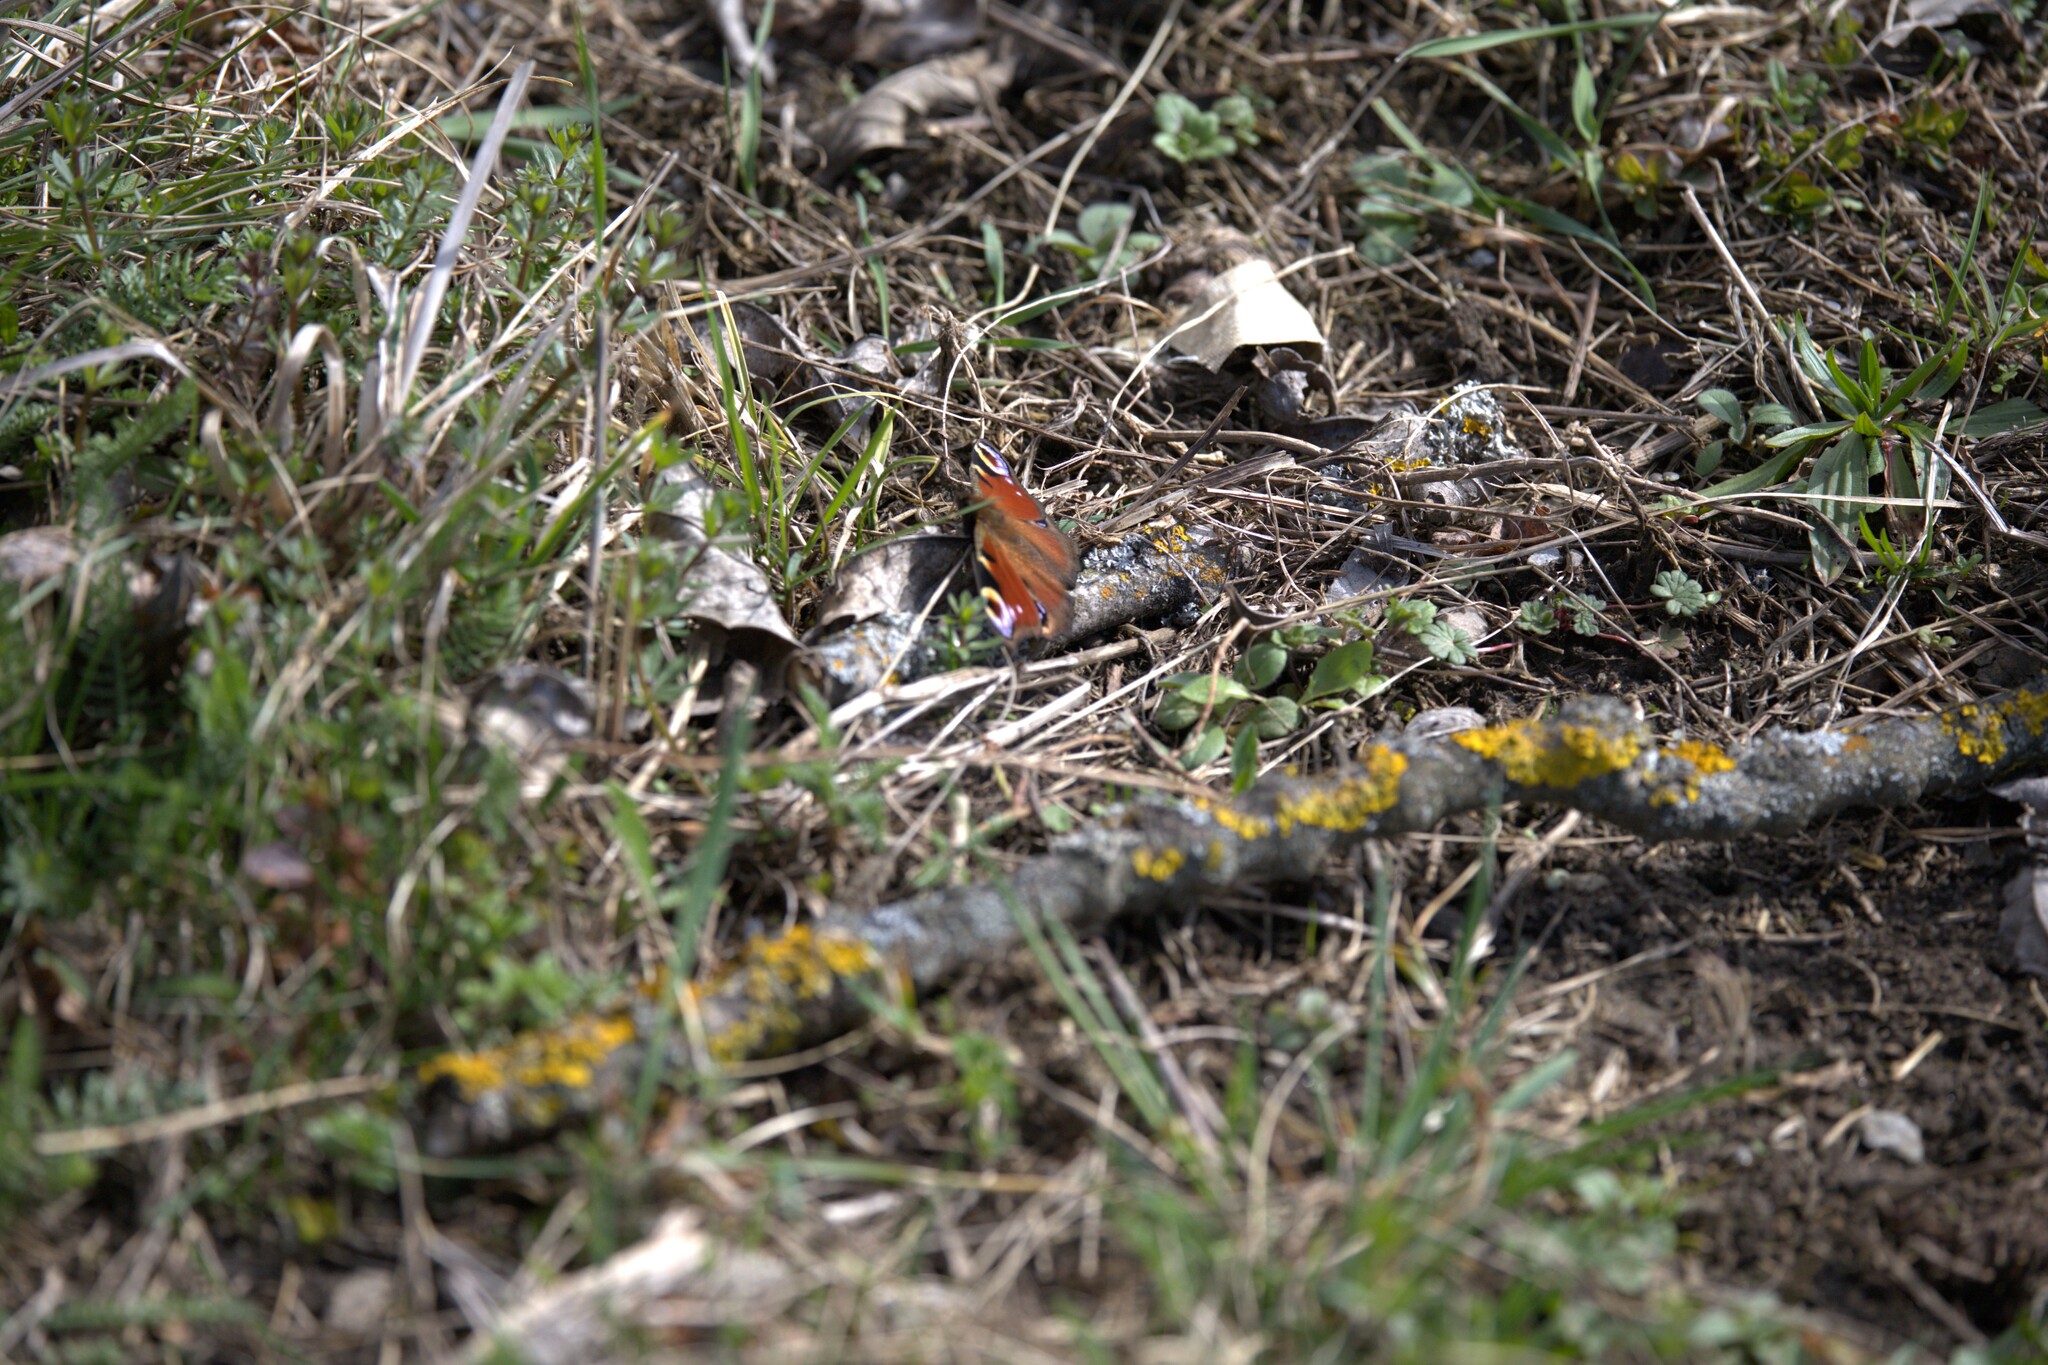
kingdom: Animalia
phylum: Arthropoda
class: Insecta
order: Lepidoptera
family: Nymphalidae
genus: Aglais
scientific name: Aglais io
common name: Peacock
